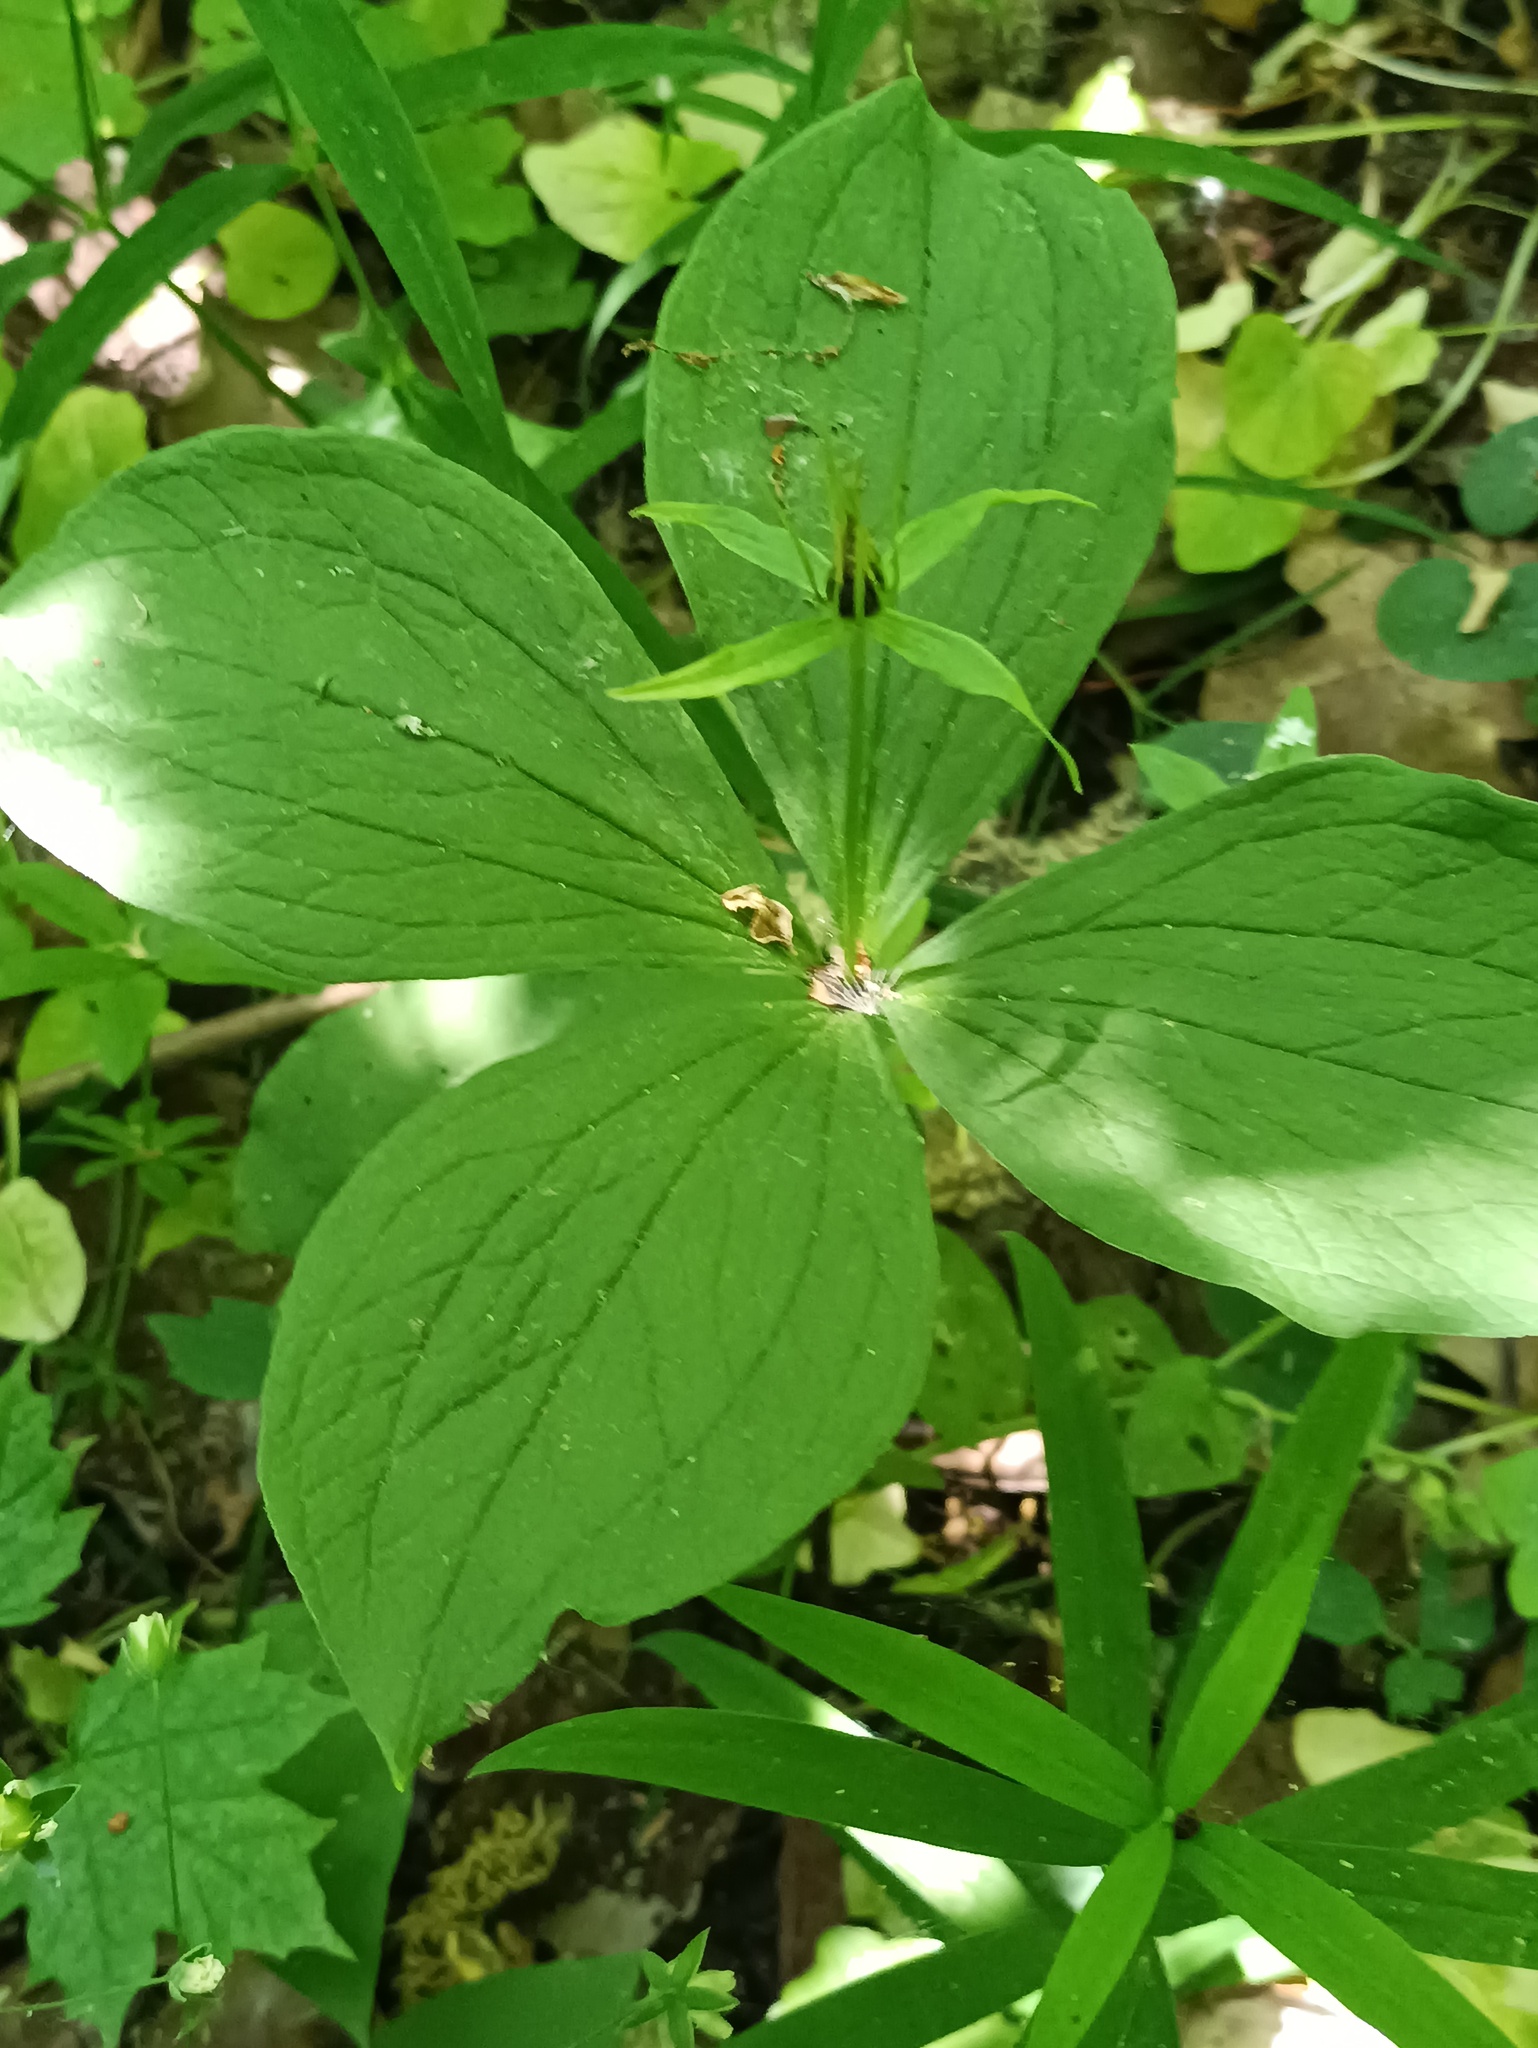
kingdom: Plantae
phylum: Tracheophyta
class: Liliopsida
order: Liliales
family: Melanthiaceae
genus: Paris
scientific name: Paris quadrifolia
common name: Herb-paris
